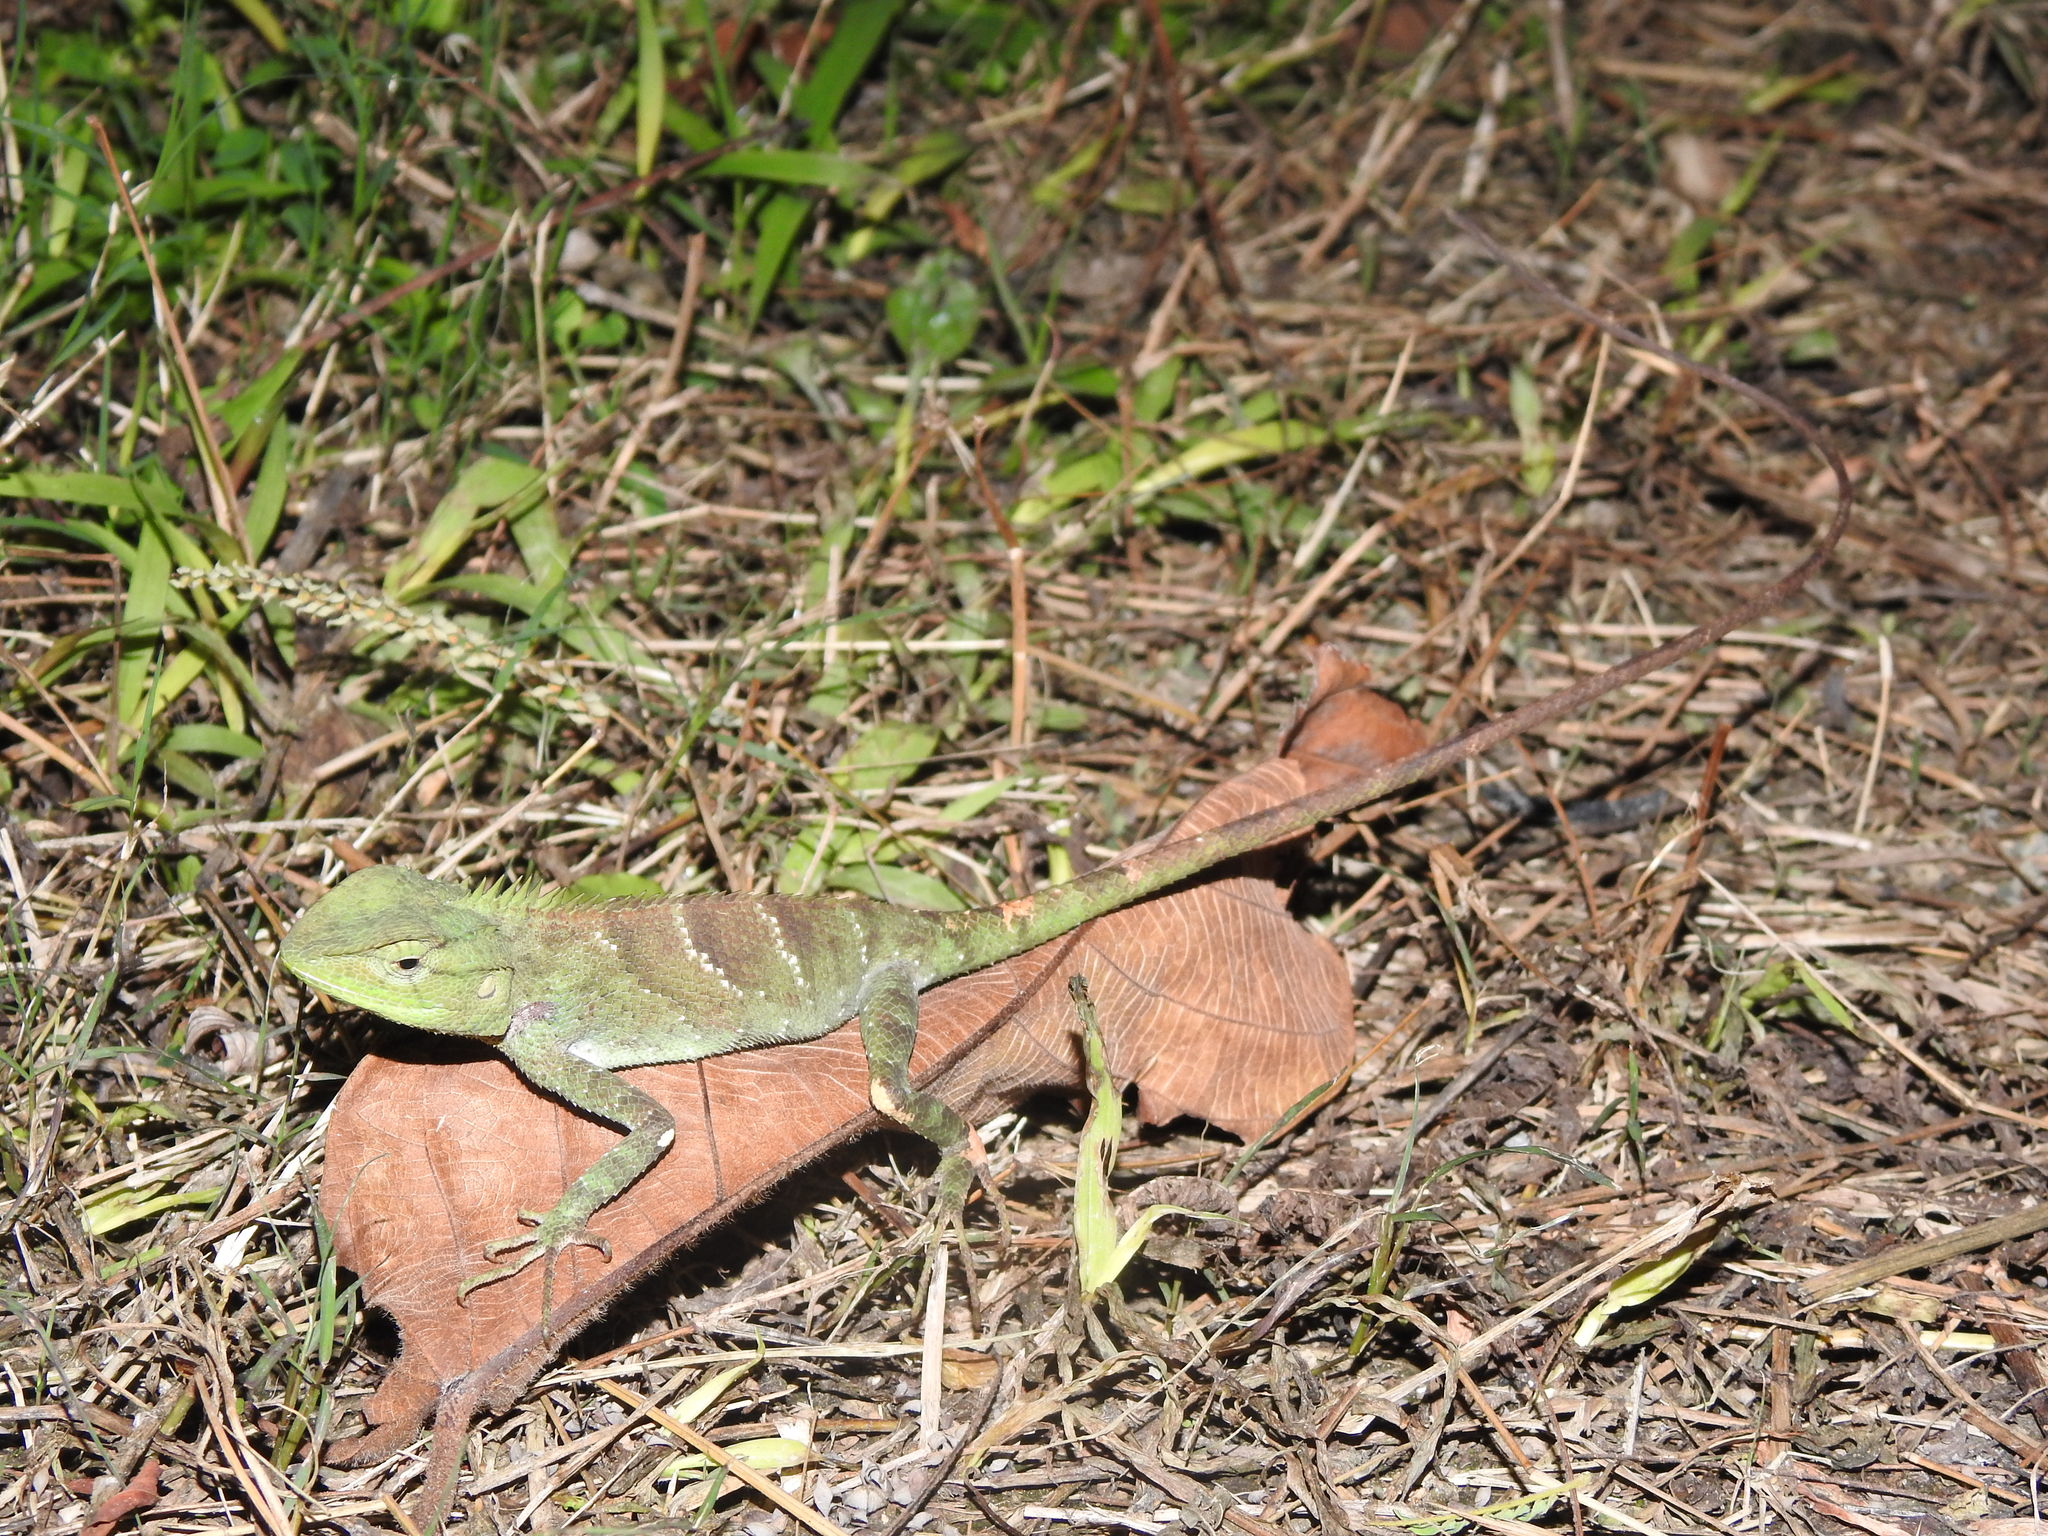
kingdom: Animalia
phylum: Chordata
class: Squamata
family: Agamidae
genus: Calotes
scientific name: Calotes medogensis
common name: Medog bloodsucker
